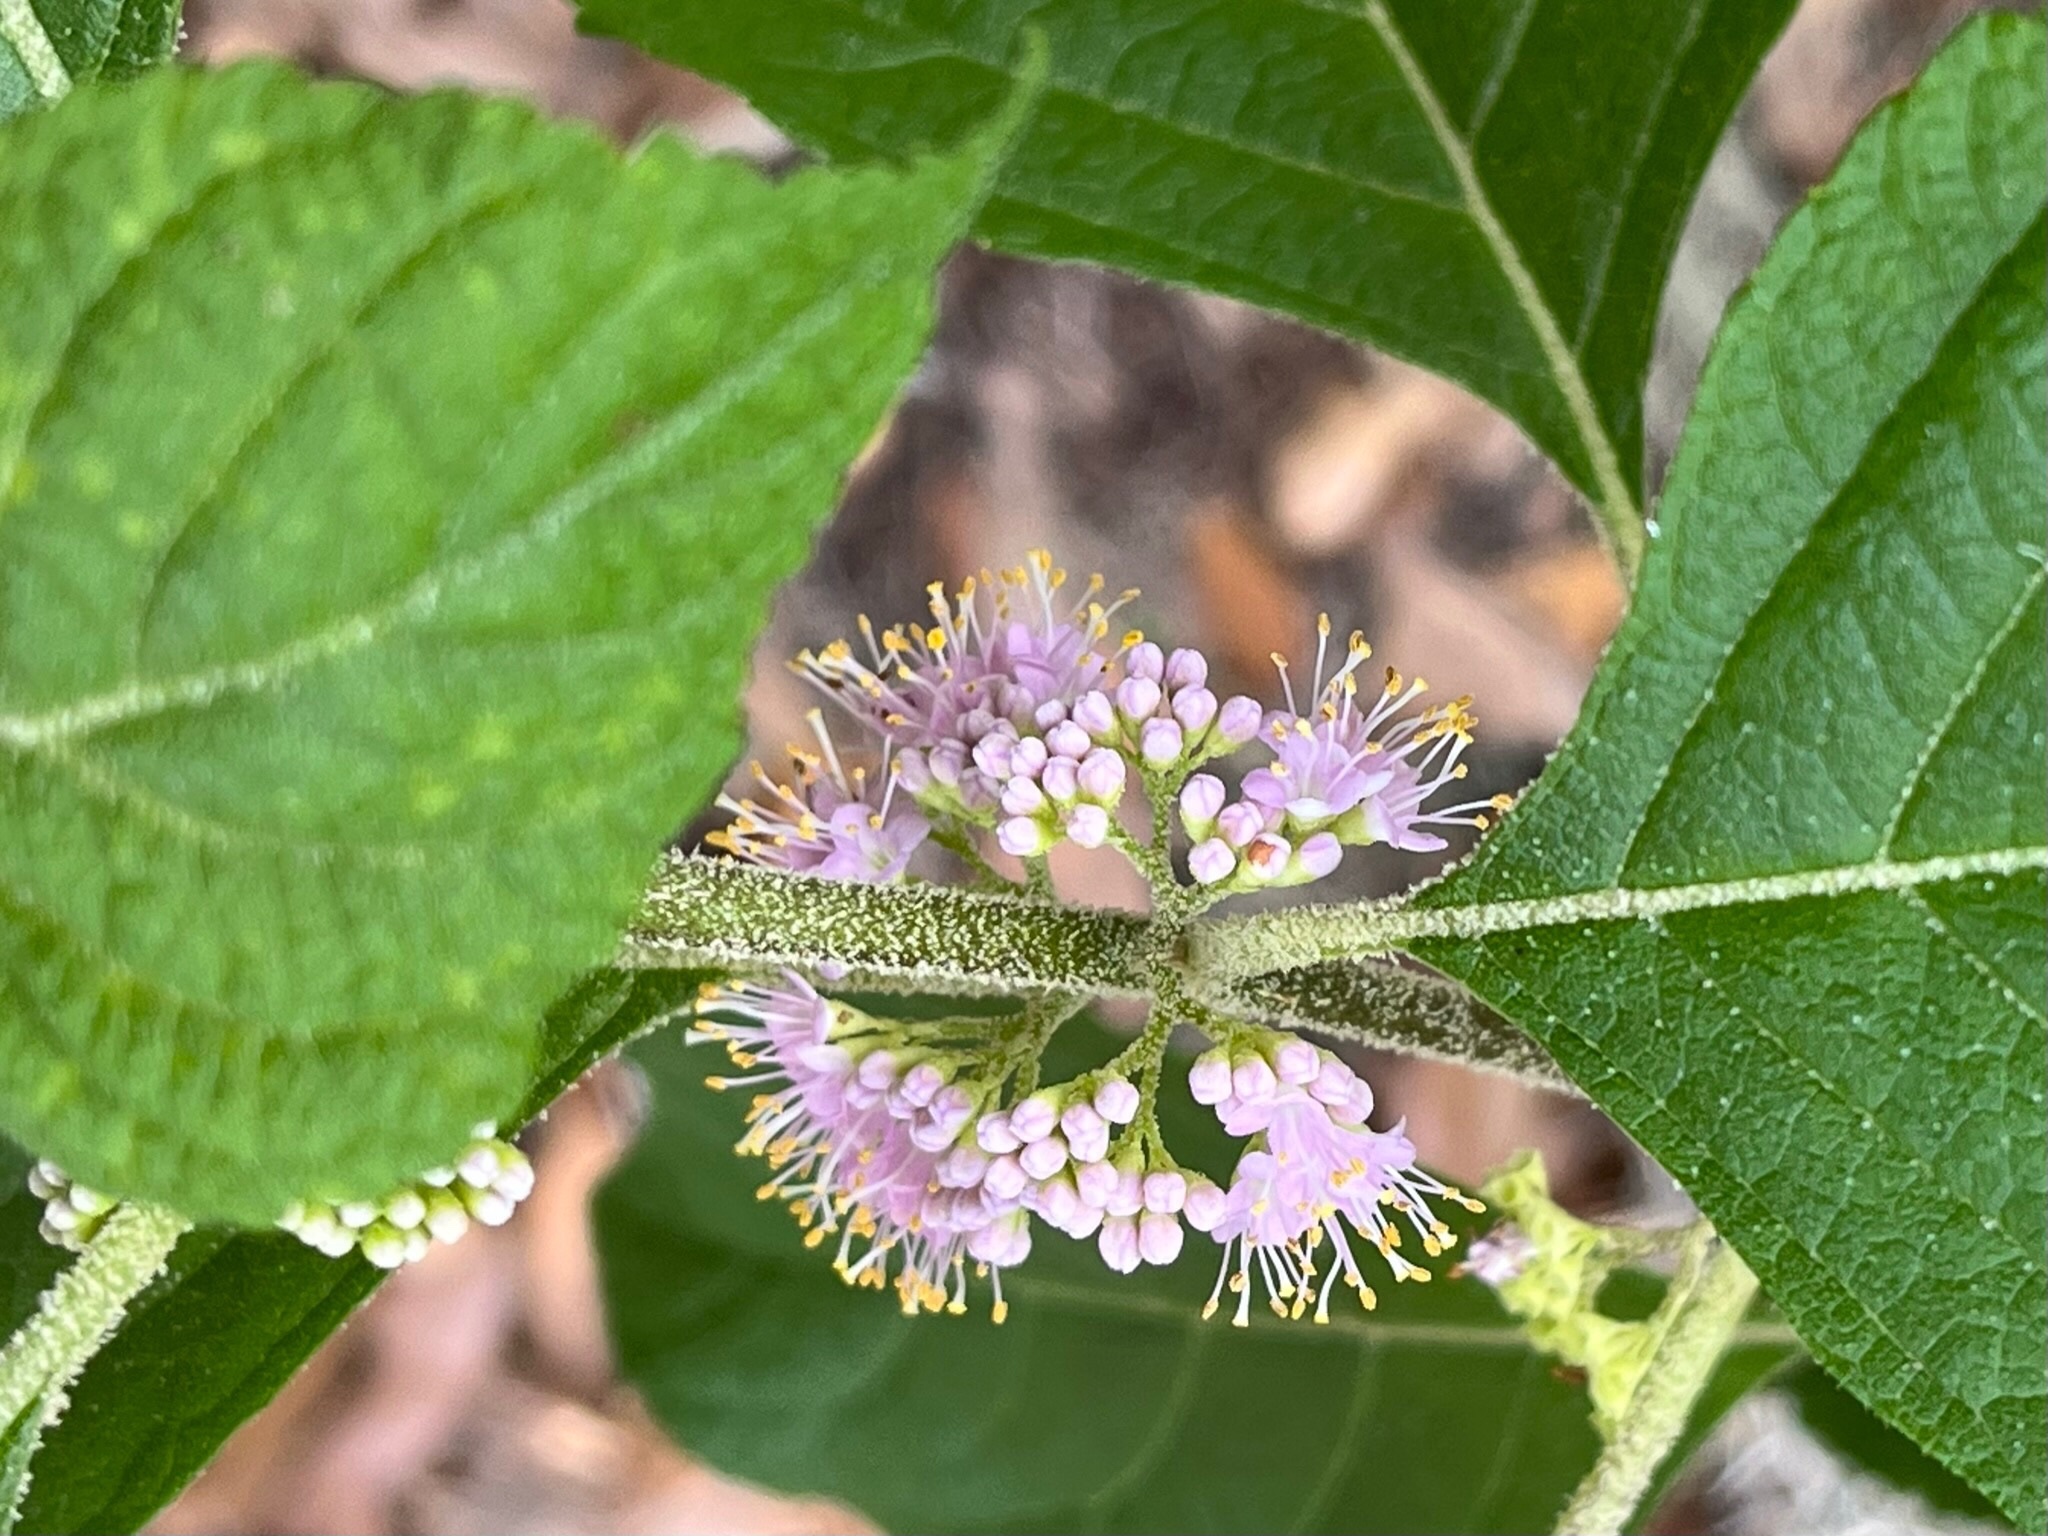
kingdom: Plantae
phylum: Tracheophyta
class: Magnoliopsida
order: Lamiales
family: Lamiaceae
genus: Callicarpa
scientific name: Callicarpa americana
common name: American beautyberry
